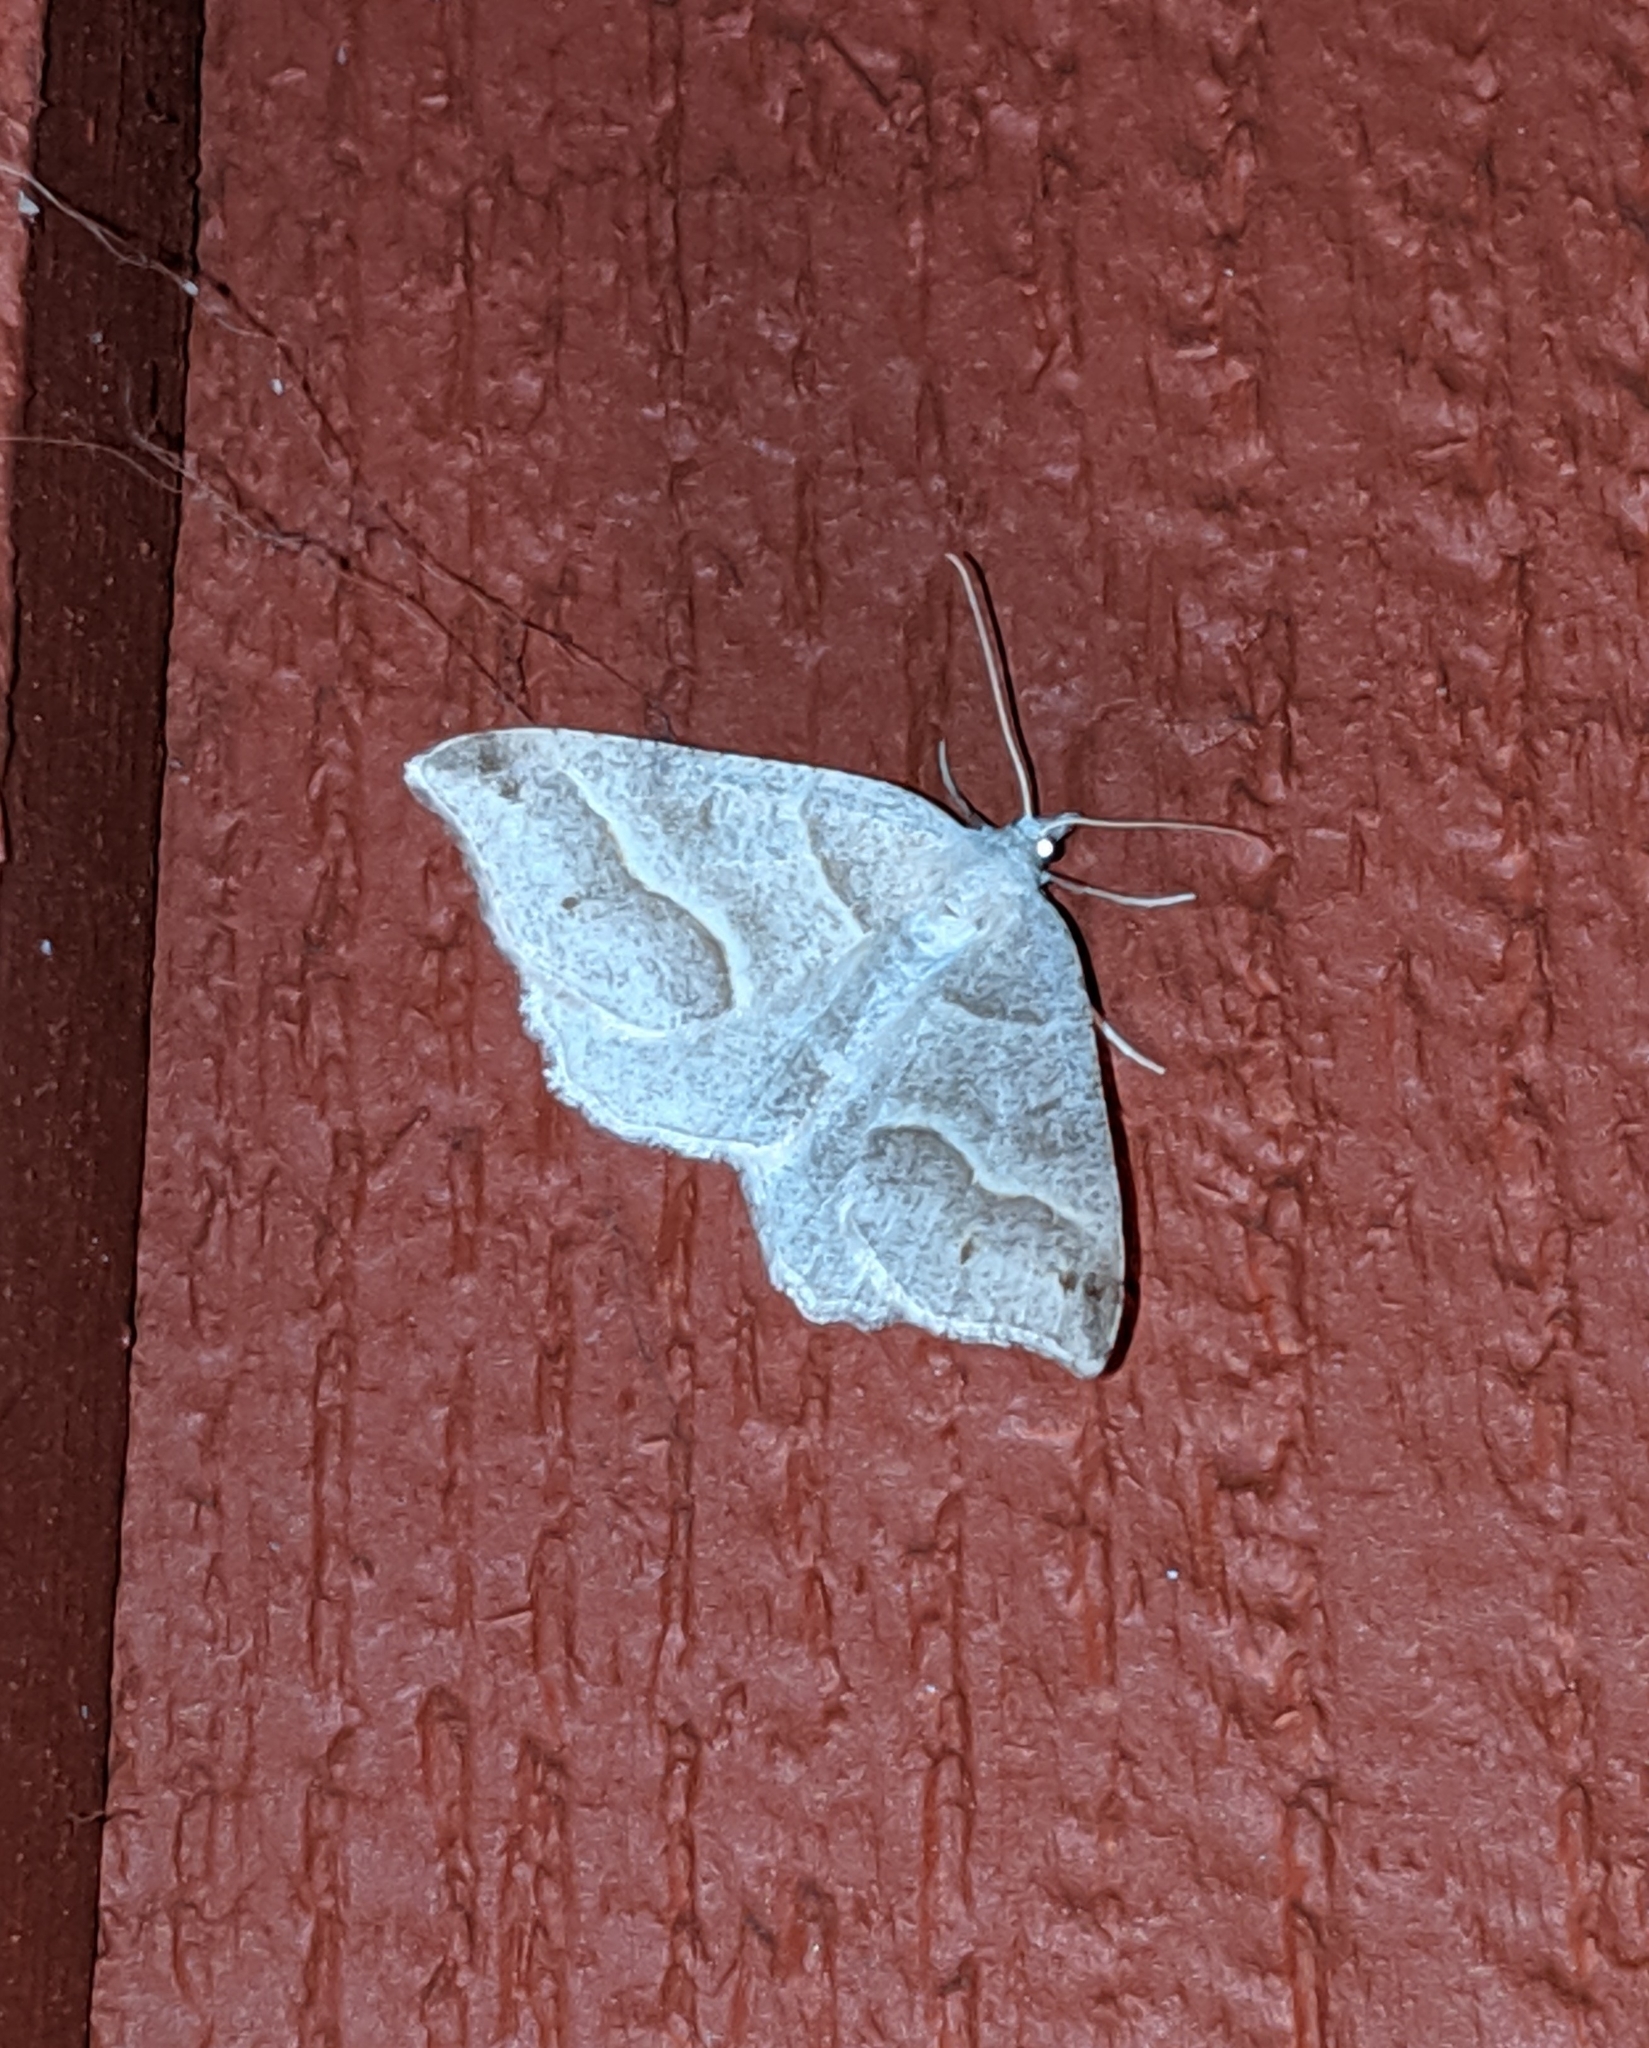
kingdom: Animalia
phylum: Arthropoda
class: Insecta
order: Lepidoptera
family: Geometridae
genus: Macaria
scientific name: Macaria lorquinaria
